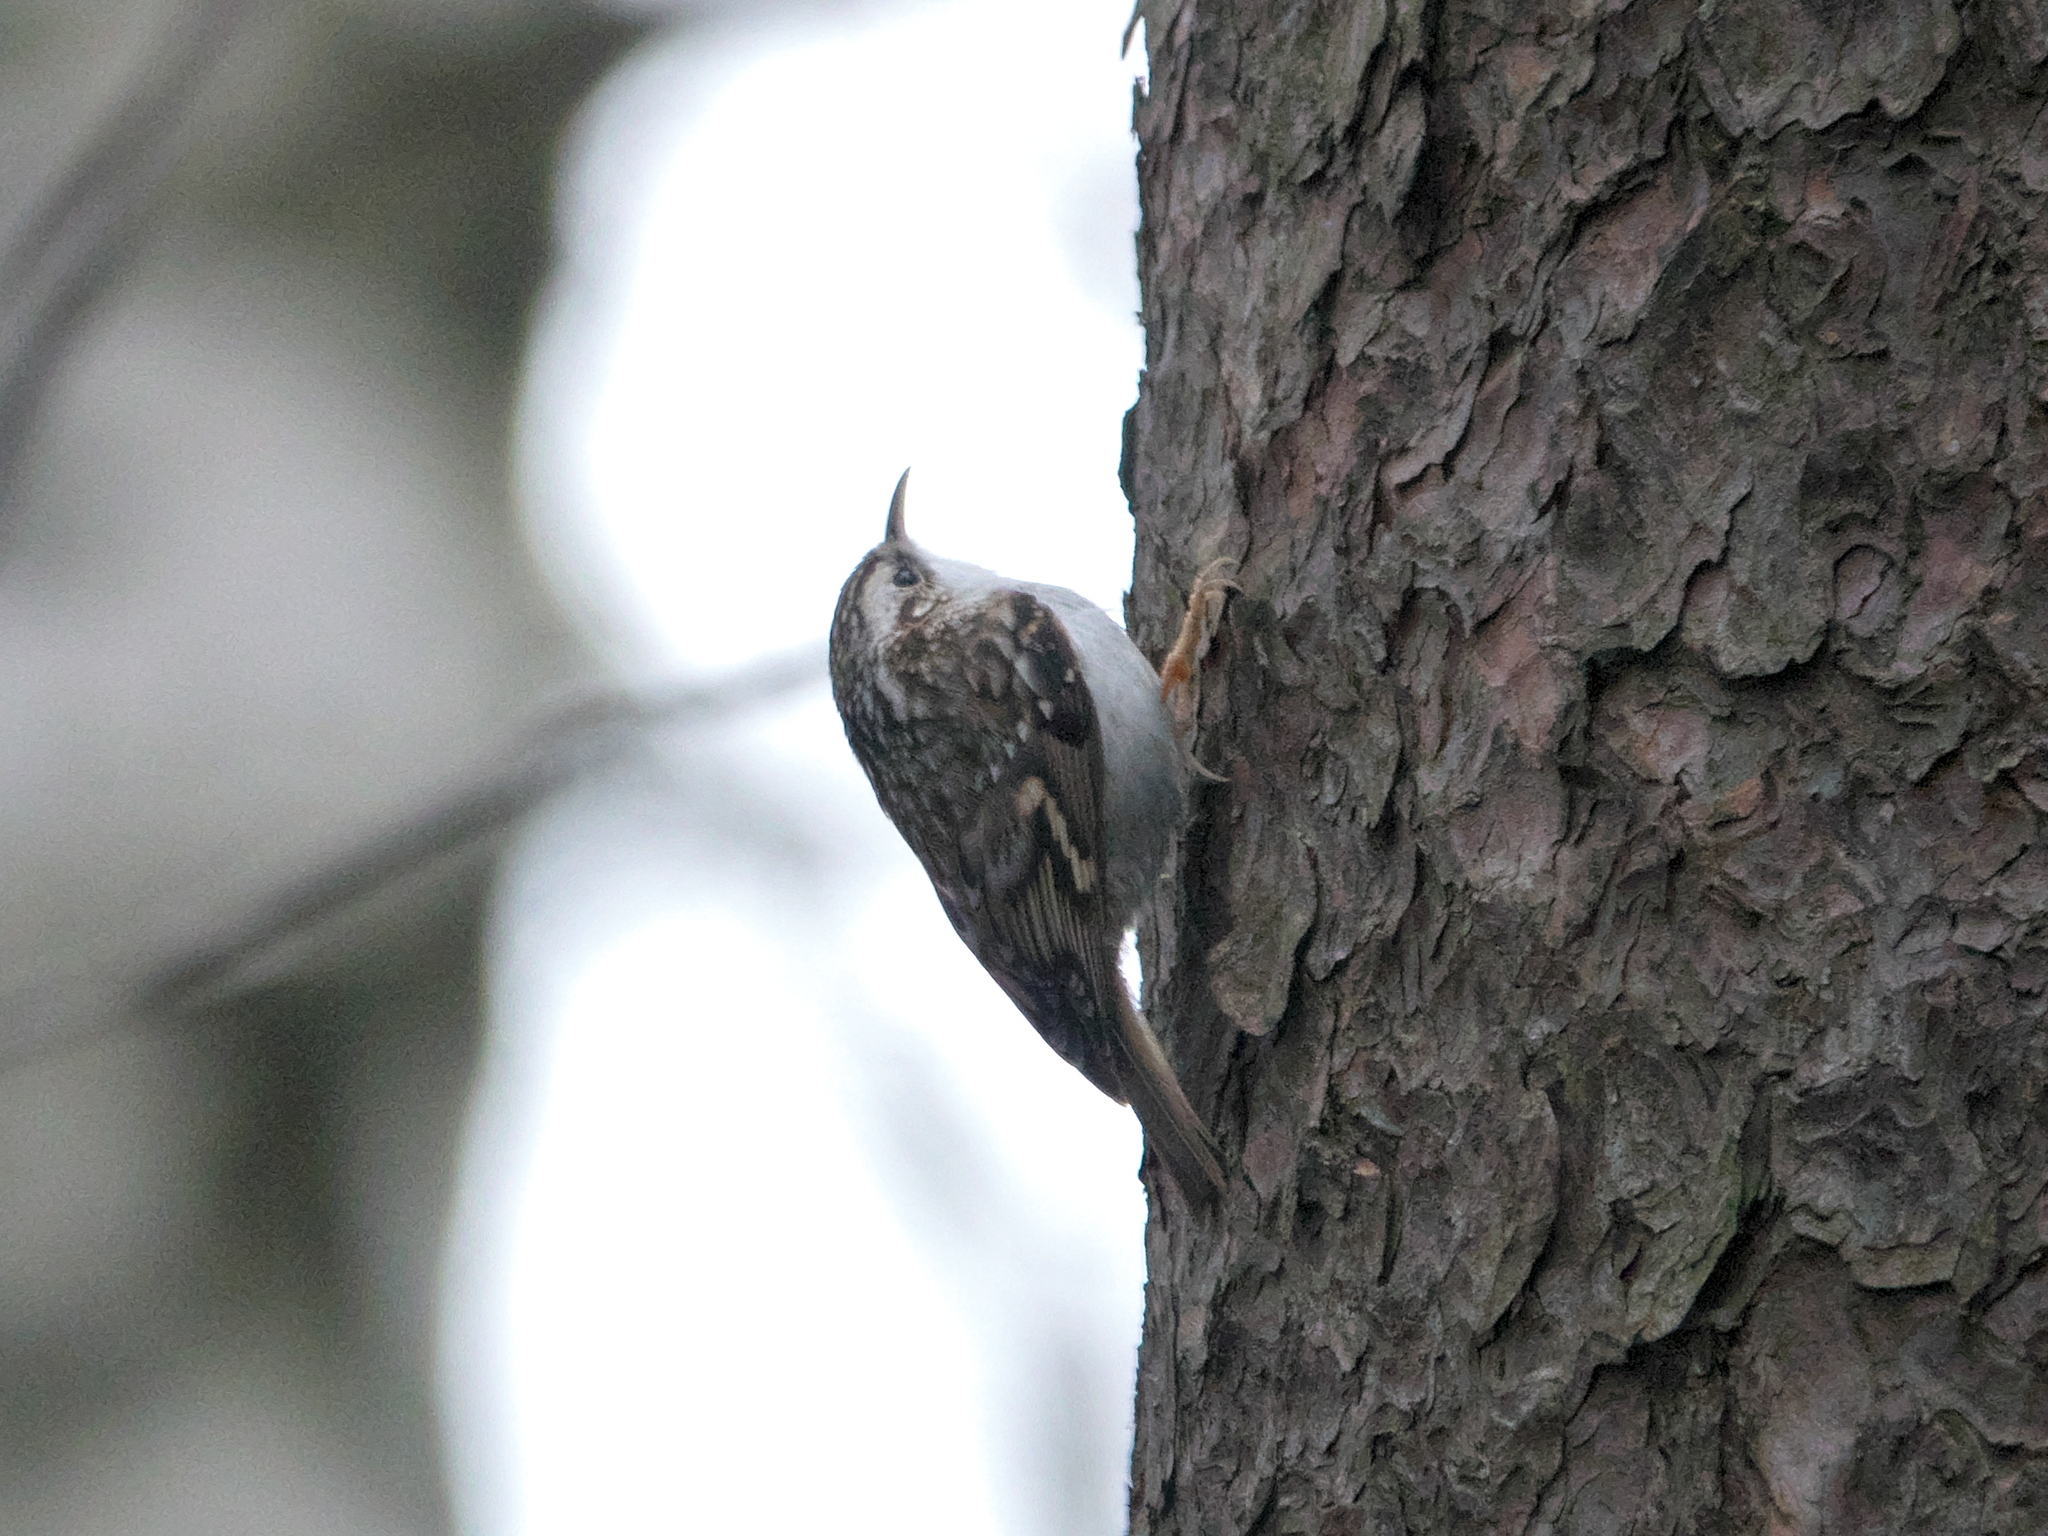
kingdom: Animalia
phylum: Chordata
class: Aves
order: Passeriformes
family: Certhiidae
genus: Certhia
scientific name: Certhia familiaris
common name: Eurasian treecreeper
